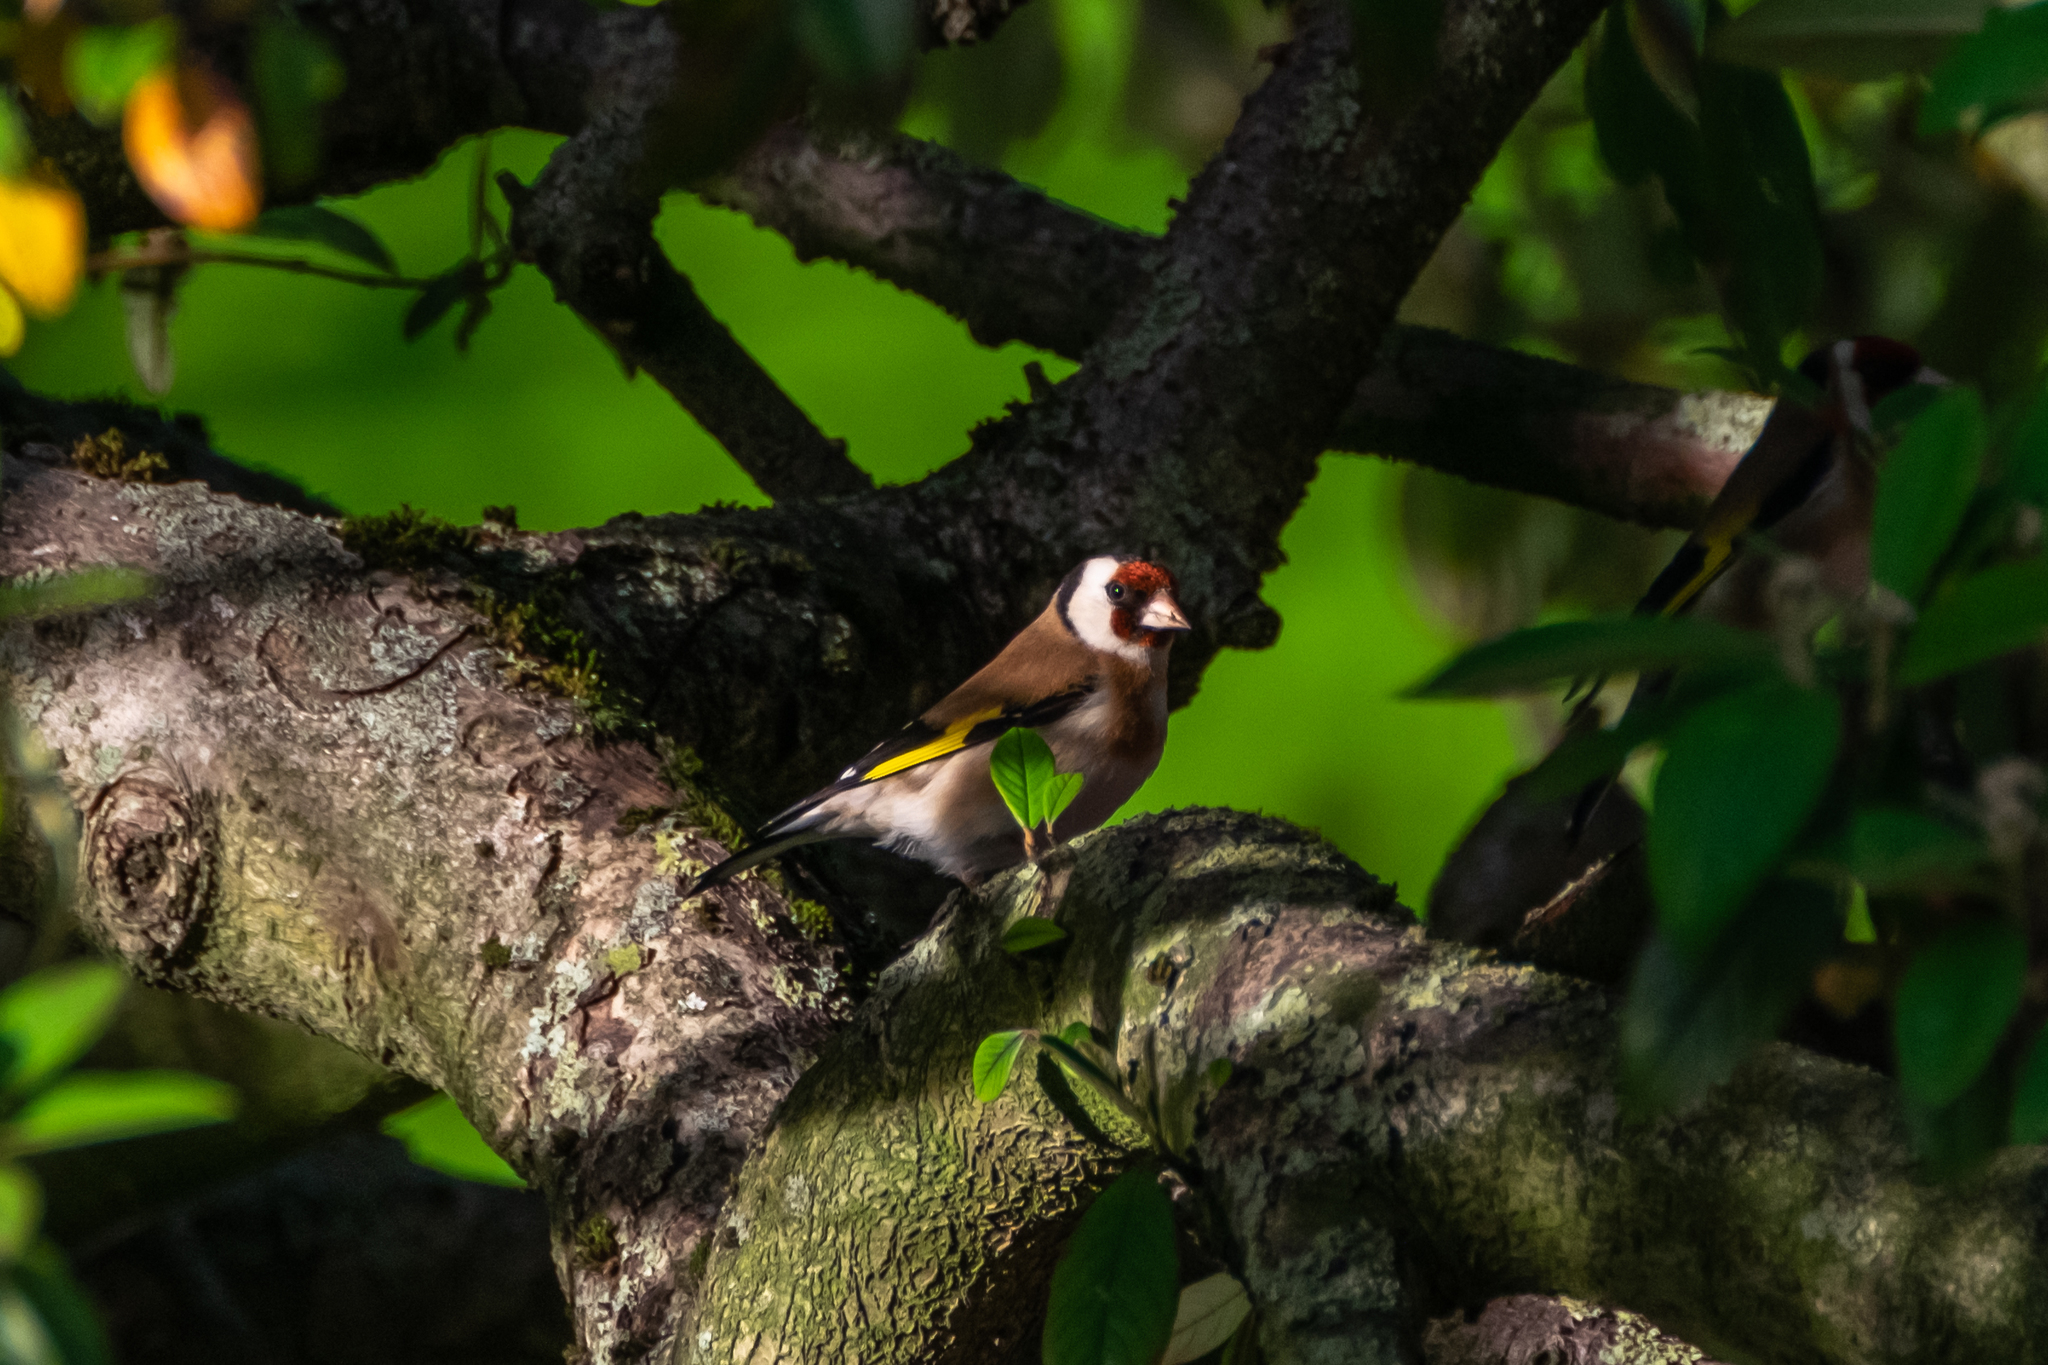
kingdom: Animalia
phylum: Chordata
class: Aves
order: Passeriformes
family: Fringillidae
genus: Carduelis
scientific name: Carduelis carduelis
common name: European goldfinch
